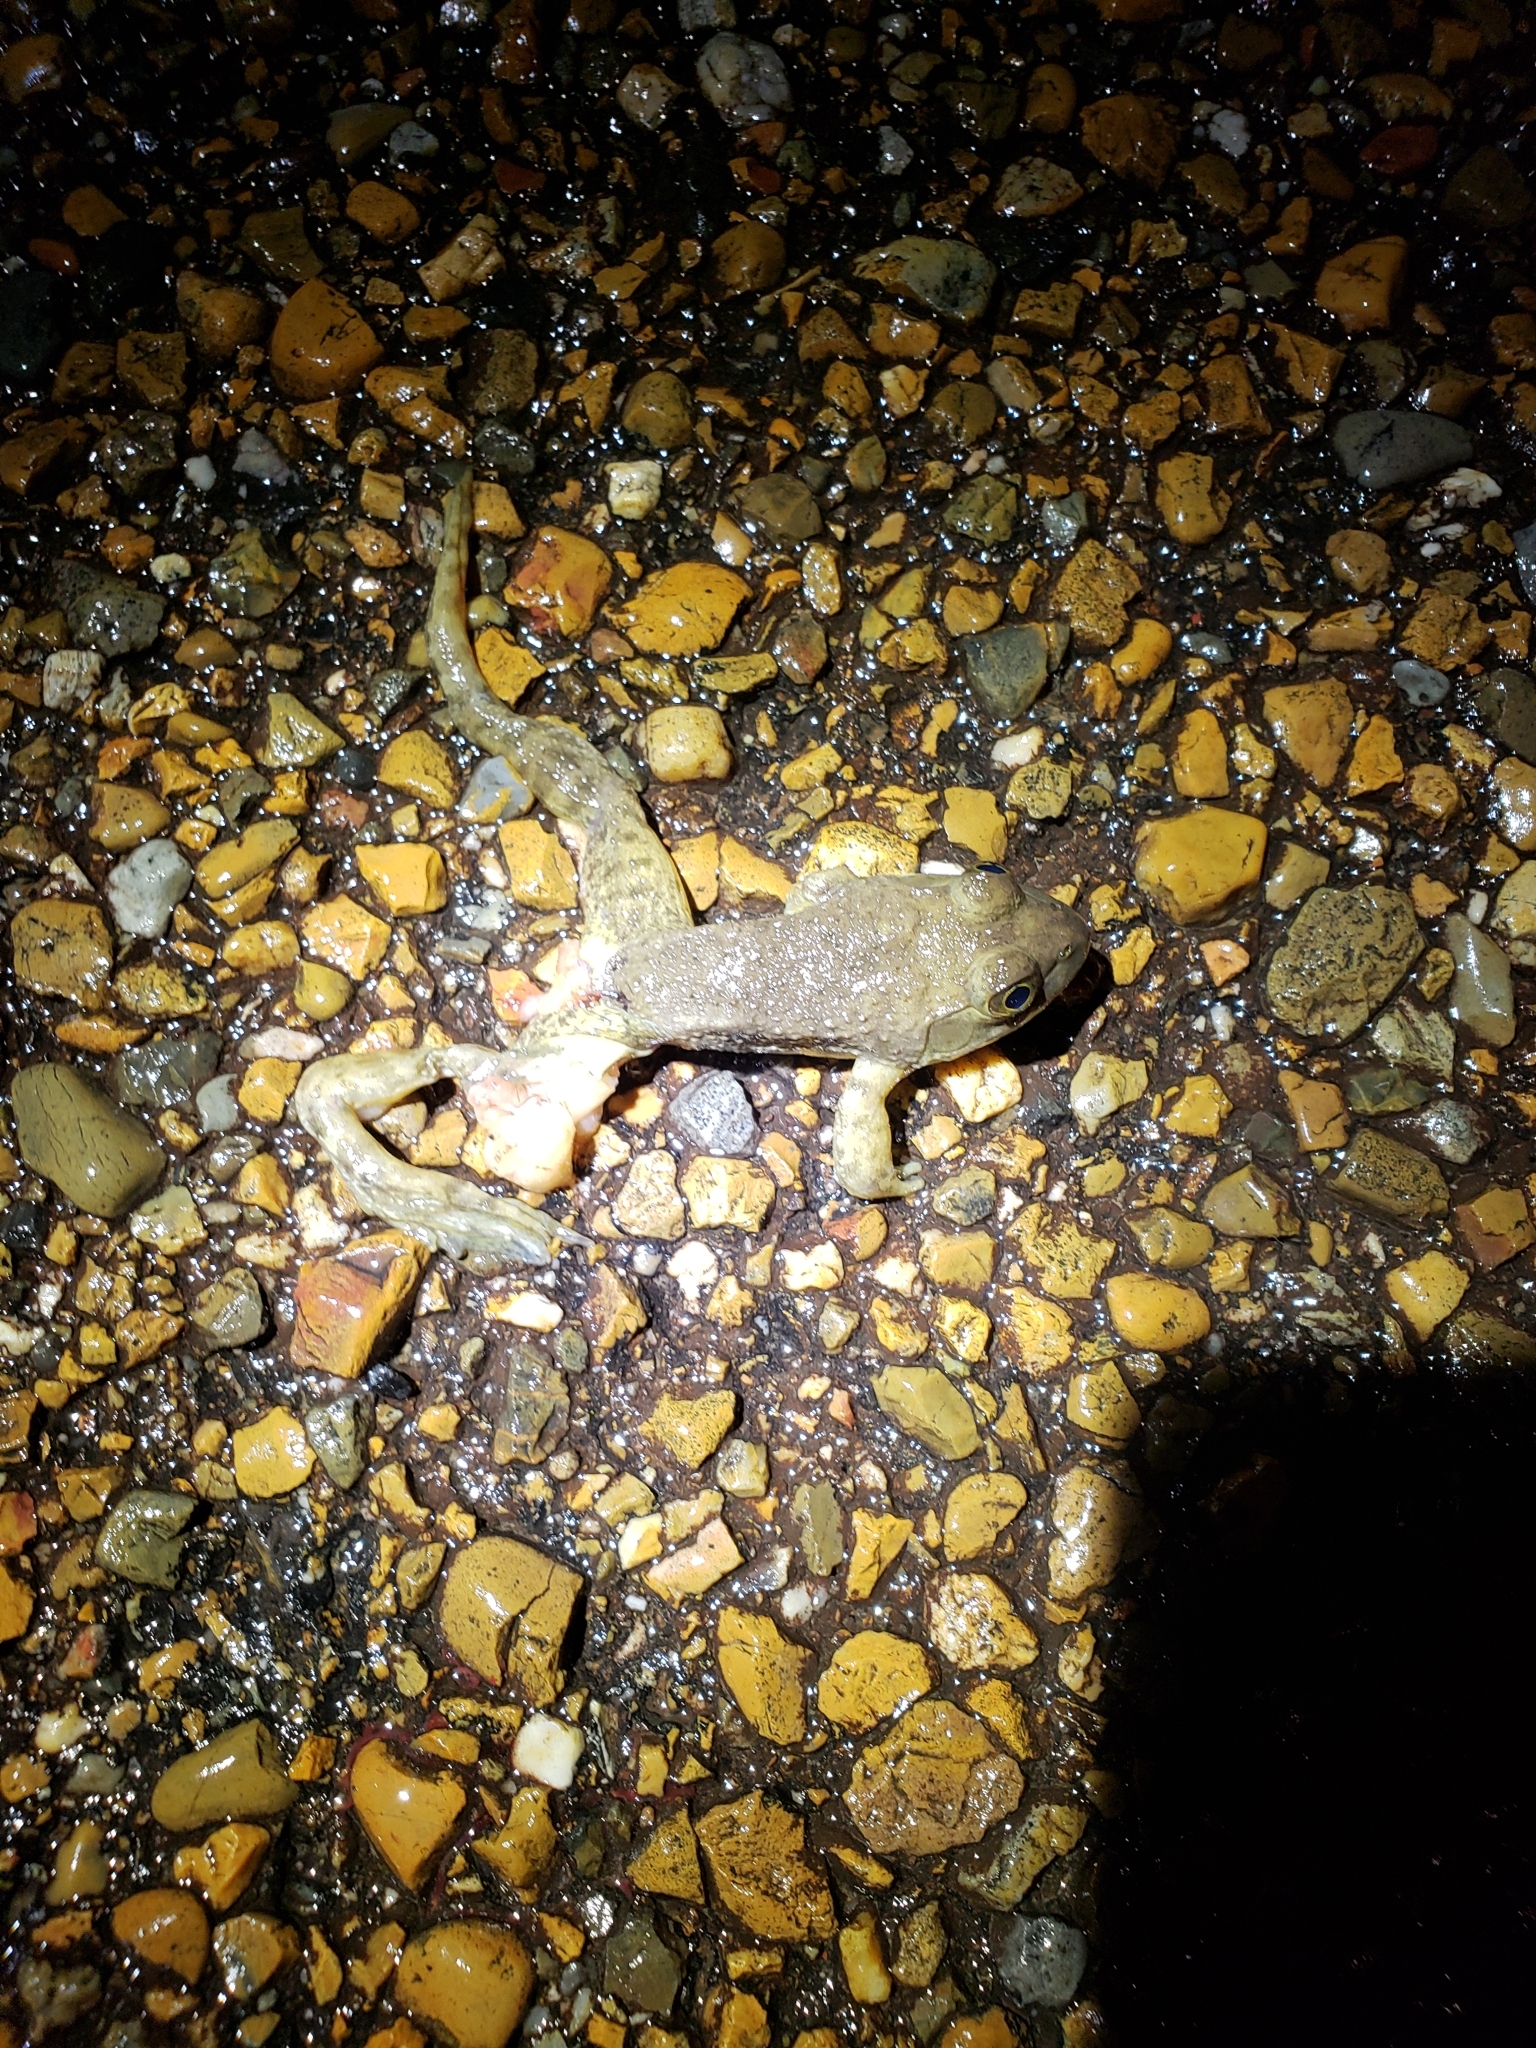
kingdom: Animalia
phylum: Chordata
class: Amphibia
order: Anura
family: Ranidae
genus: Lithobates
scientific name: Lithobates catesbeianus
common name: American bullfrog
